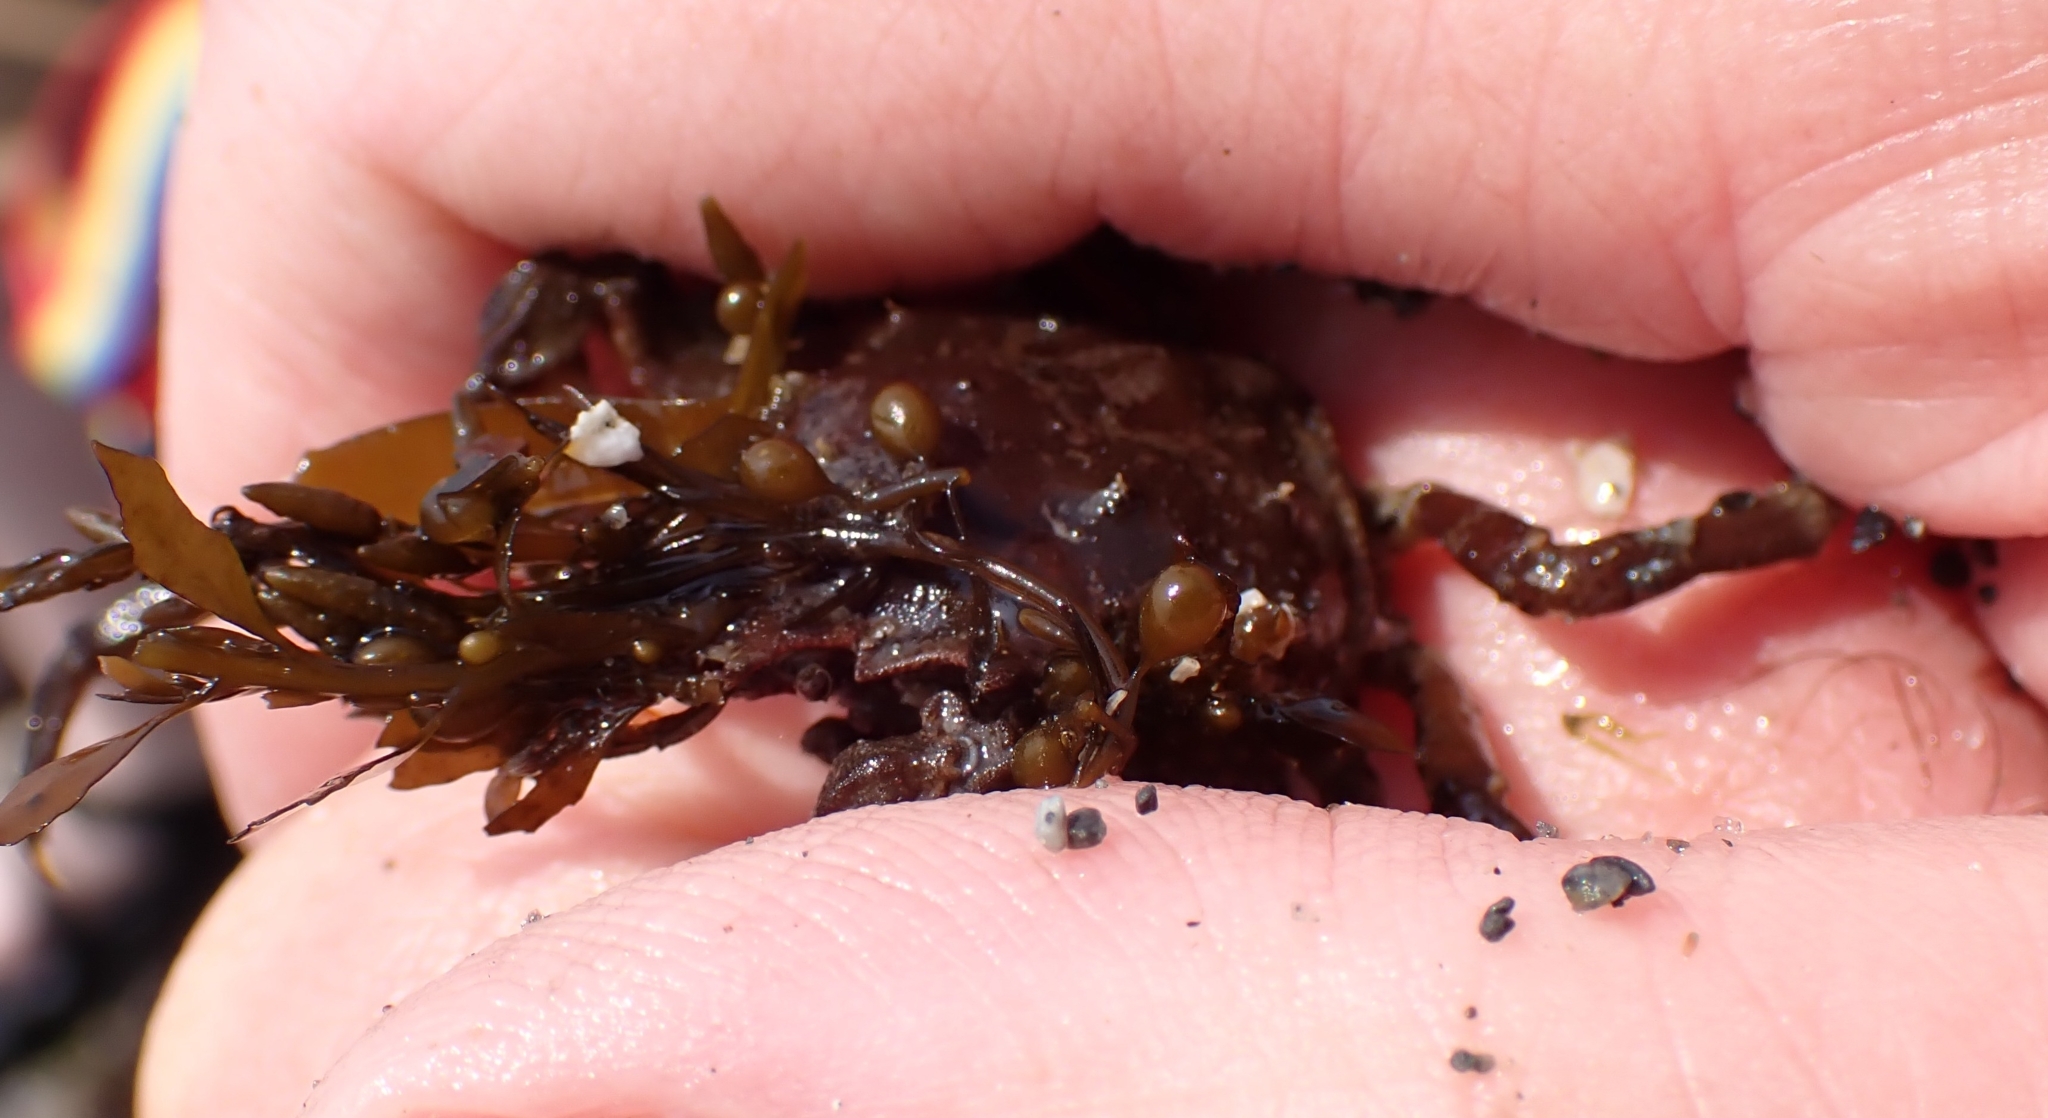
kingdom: Animalia
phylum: Arthropoda
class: Malacostraca
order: Decapoda
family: Epialtidae
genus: Pugettia
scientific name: Pugettia gracilis
